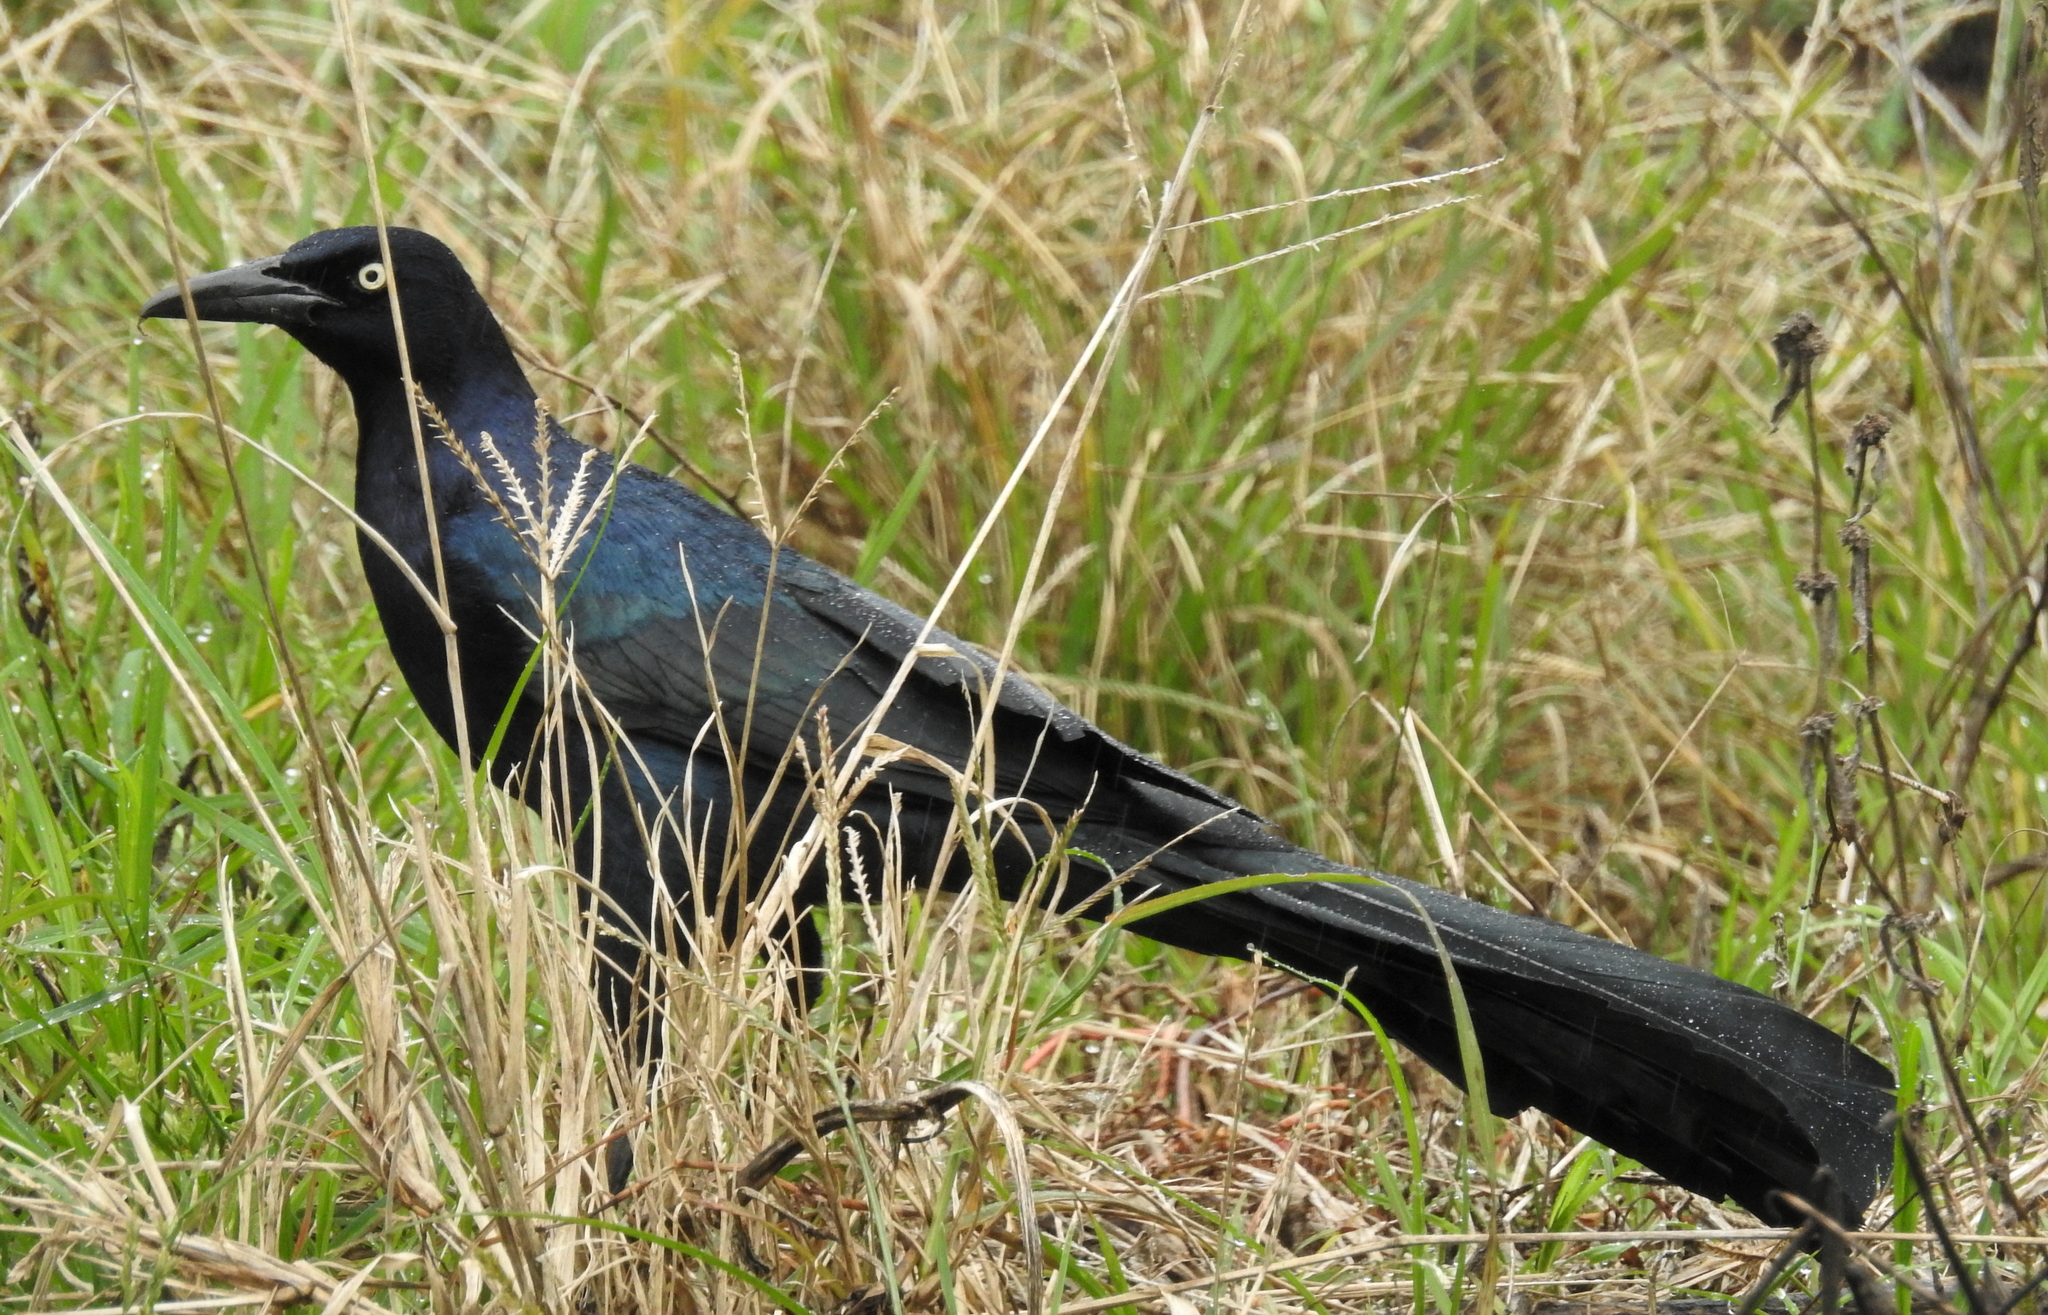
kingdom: Animalia
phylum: Chordata
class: Aves
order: Passeriformes
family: Icteridae
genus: Quiscalus
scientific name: Quiscalus mexicanus
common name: Great-tailed grackle
